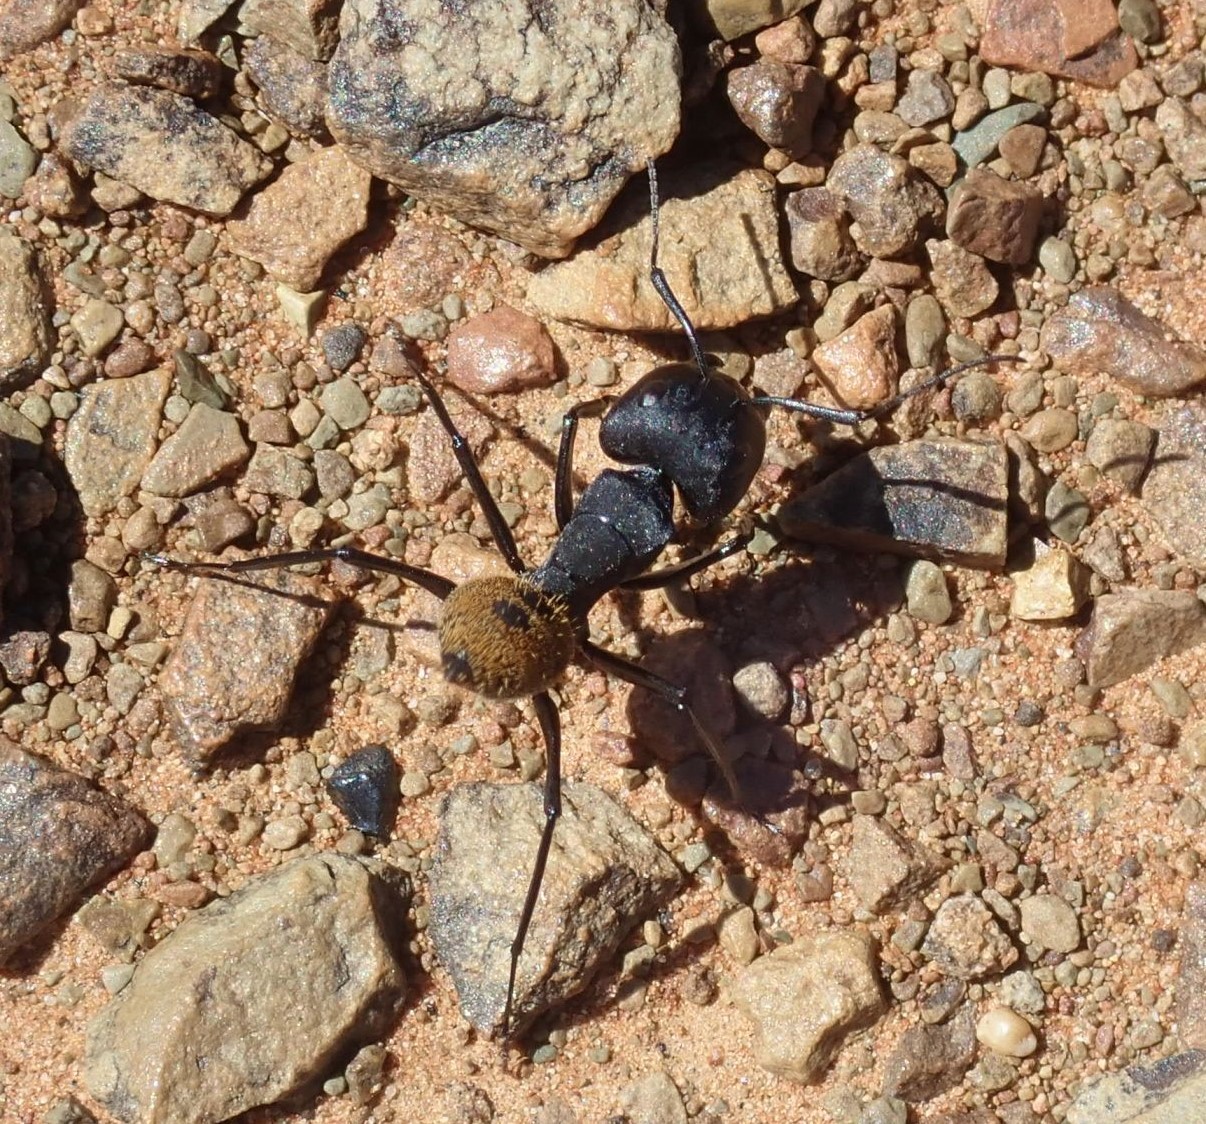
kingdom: Animalia
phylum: Arthropoda
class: Insecta
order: Hymenoptera
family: Formicidae
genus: Camponotus
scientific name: Camponotus fulvopilosus
